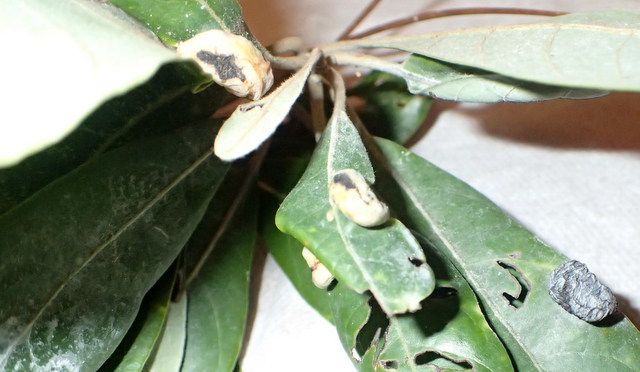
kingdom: Animalia
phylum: Arthropoda
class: Insecta
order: Hemiptera
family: Triozidae
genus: Trioza
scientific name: Trioza magnoliae
